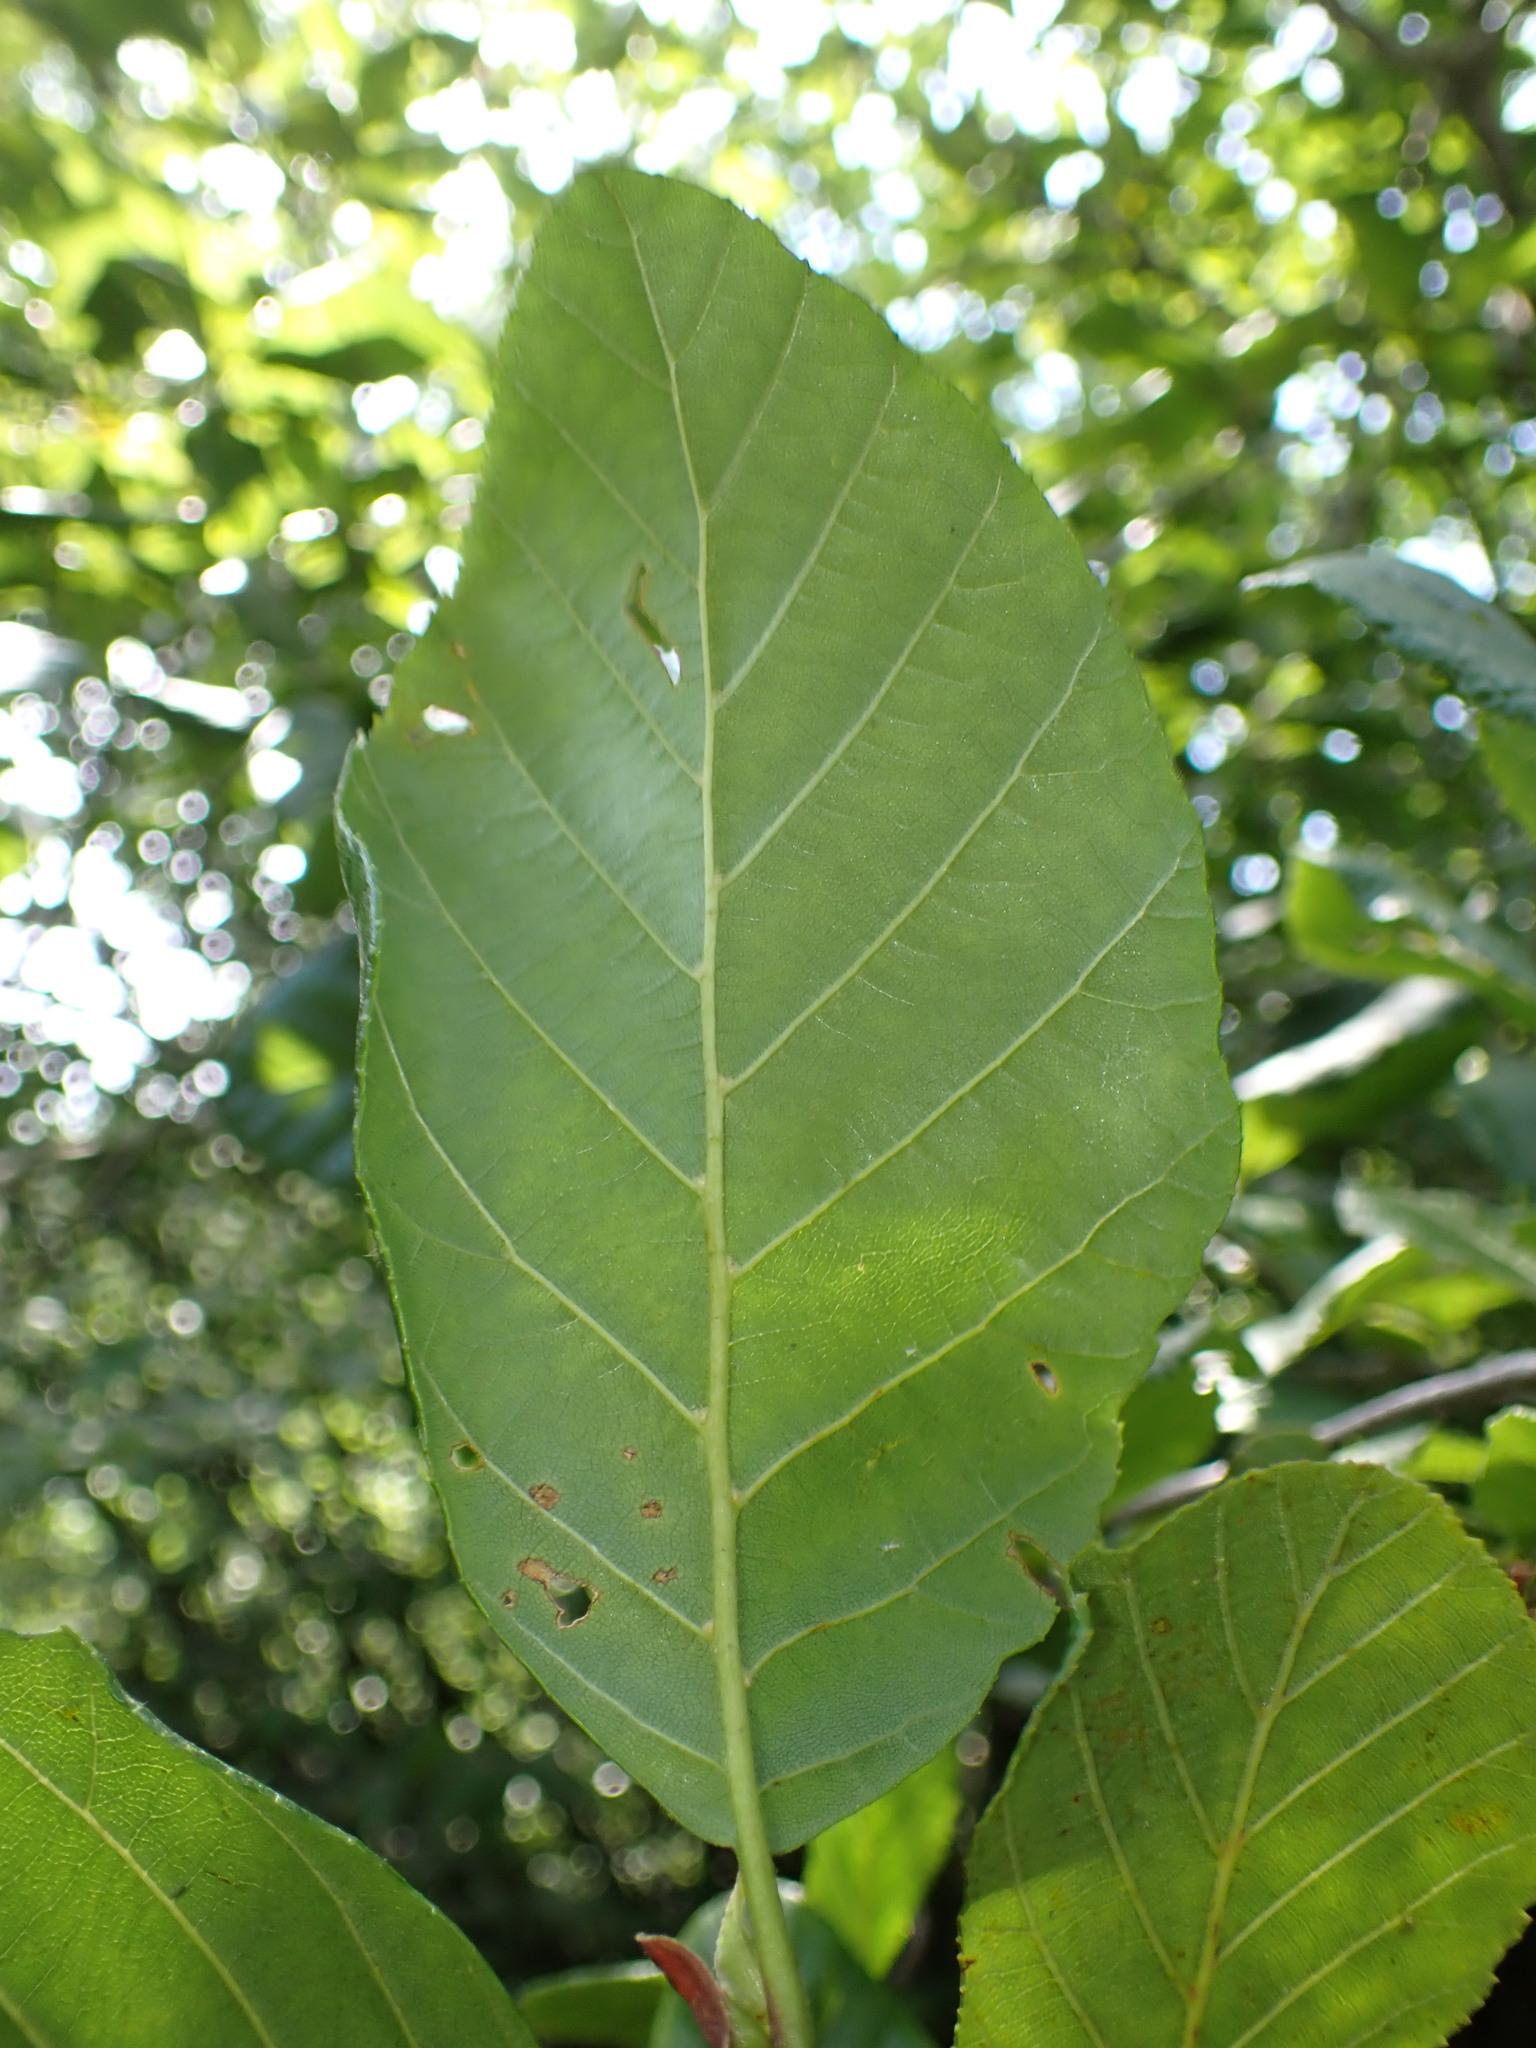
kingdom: Plantae
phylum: Tracheophyta
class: Magnoliopsida
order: Fagales
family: Betulaceae
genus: Alnus
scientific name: Alnus serrulata
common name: Hazel alder
